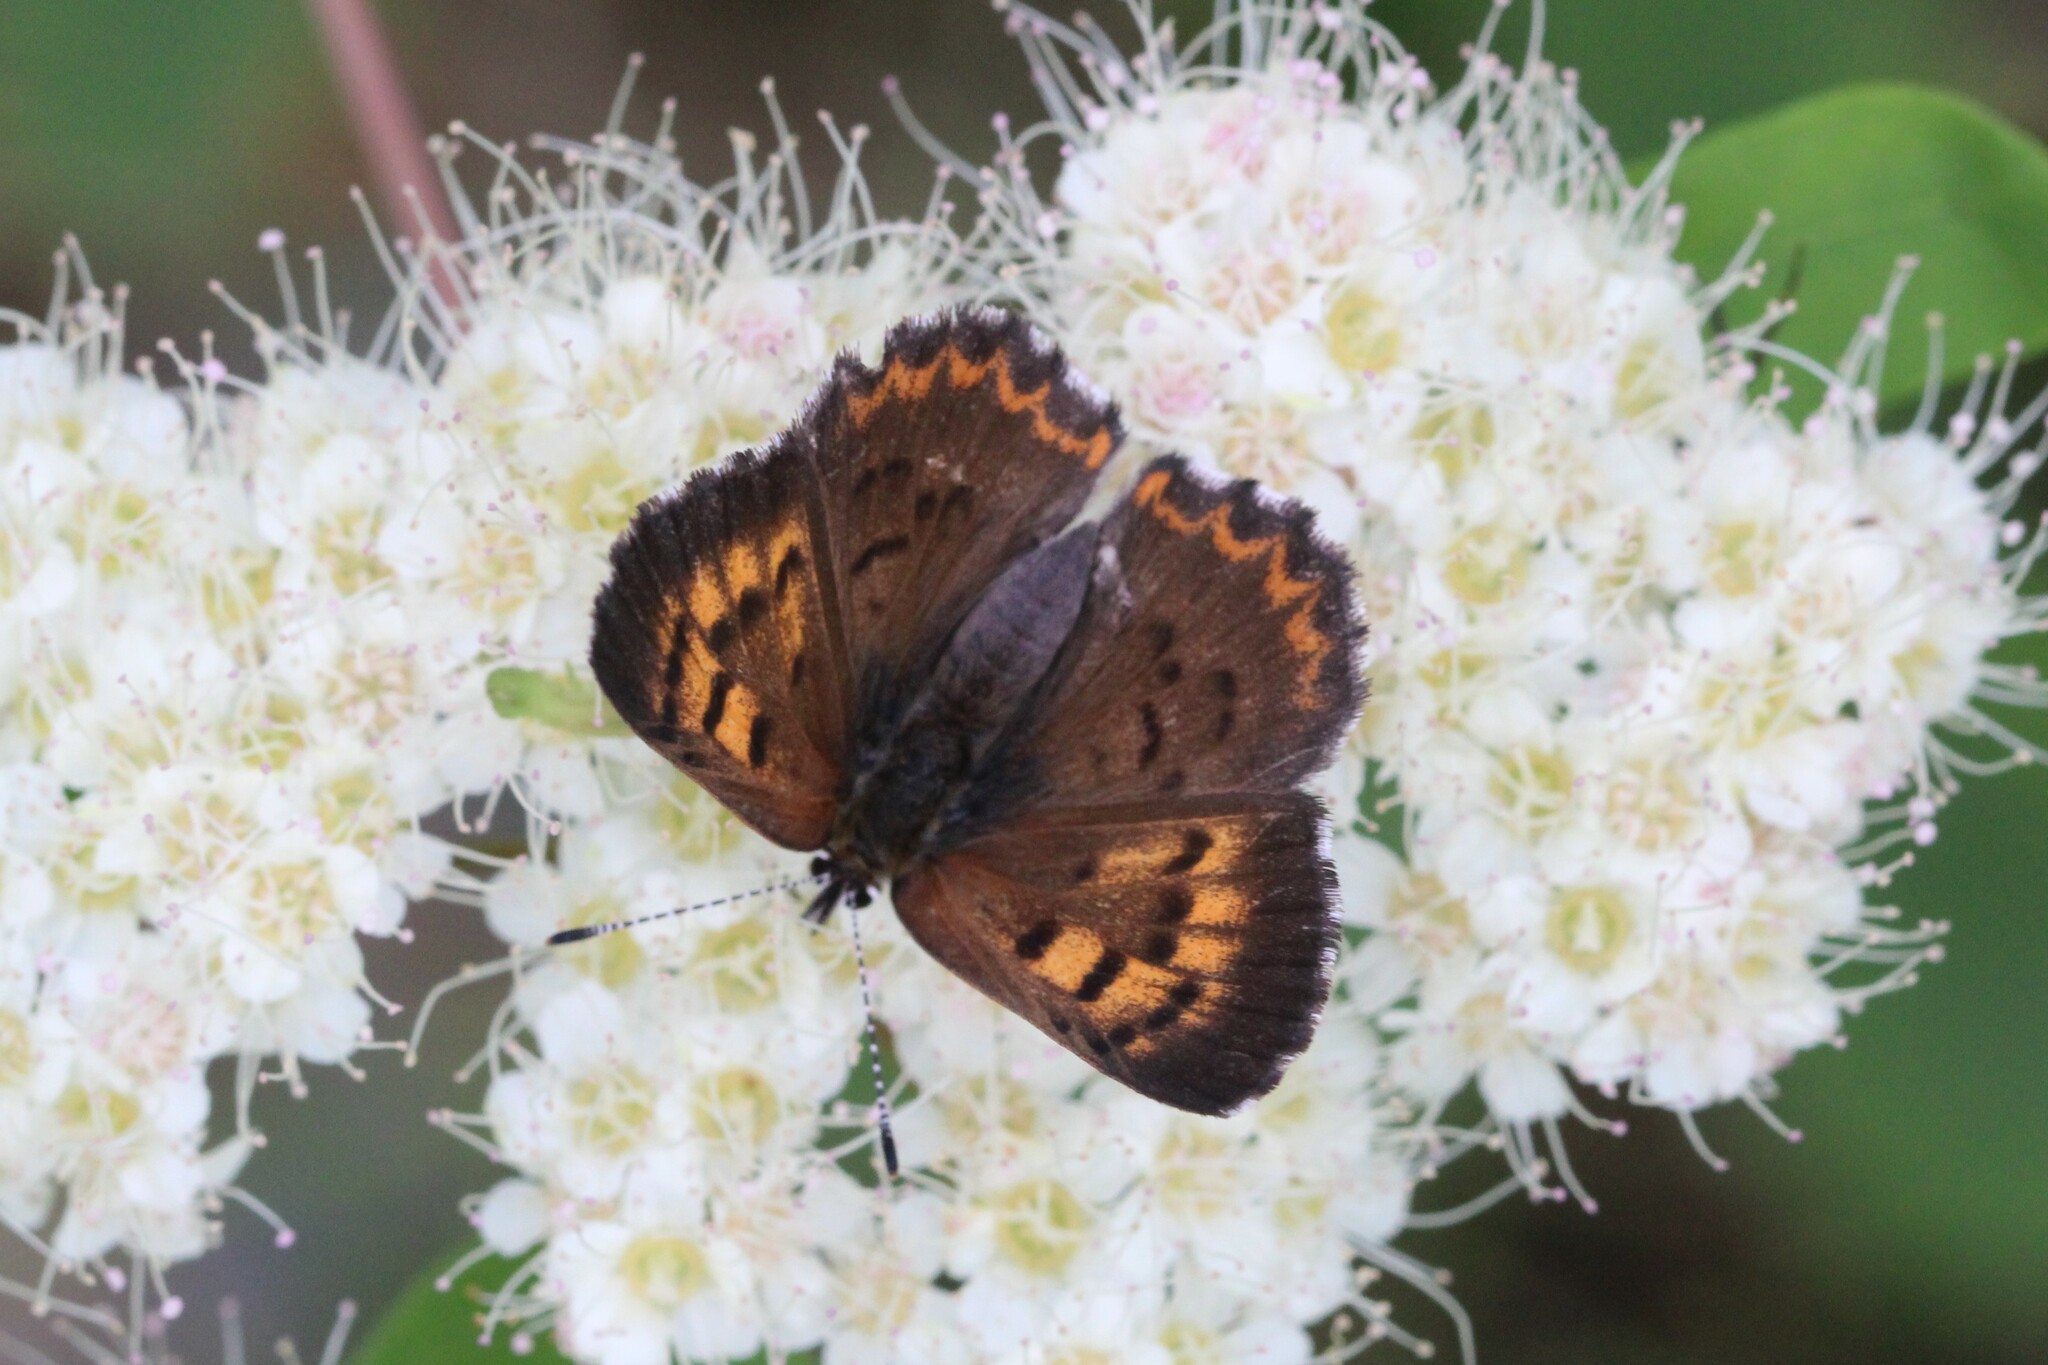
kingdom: Animalia
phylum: Arthropoda
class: Insecta
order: Lepidoptera
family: Lycaenidae
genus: Tharsalea
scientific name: Tharsalea mariposa
